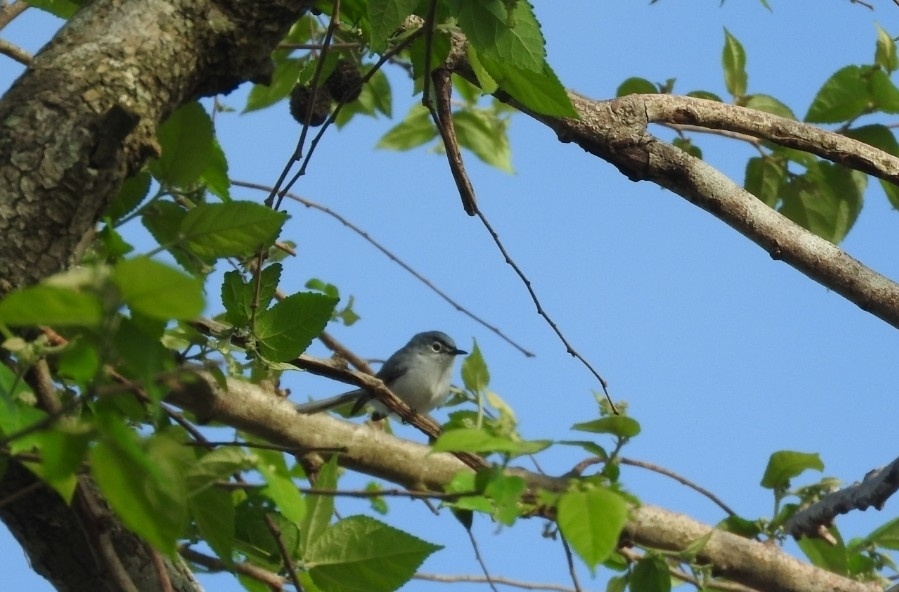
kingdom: Animalia
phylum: Chordata
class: Aves
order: Passeriformes
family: Polioptilidae
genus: Polioptila
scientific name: Polioptila caerulea
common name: Blue-gray gnatcatcher
